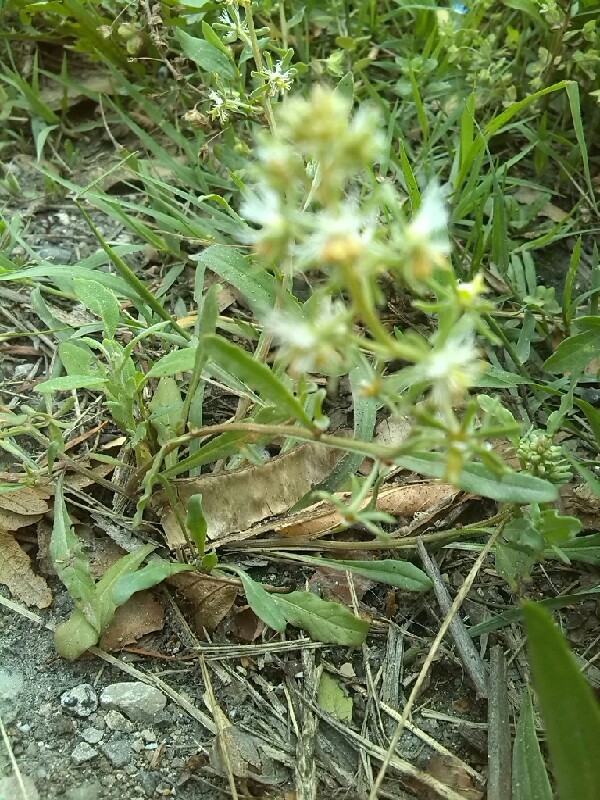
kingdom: Plantae
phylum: Tracheophyta
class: Magnoliopsida
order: Brassicales
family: Resedaceae
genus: Reseda
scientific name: Reseda phyteuma
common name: Corn mignonette
